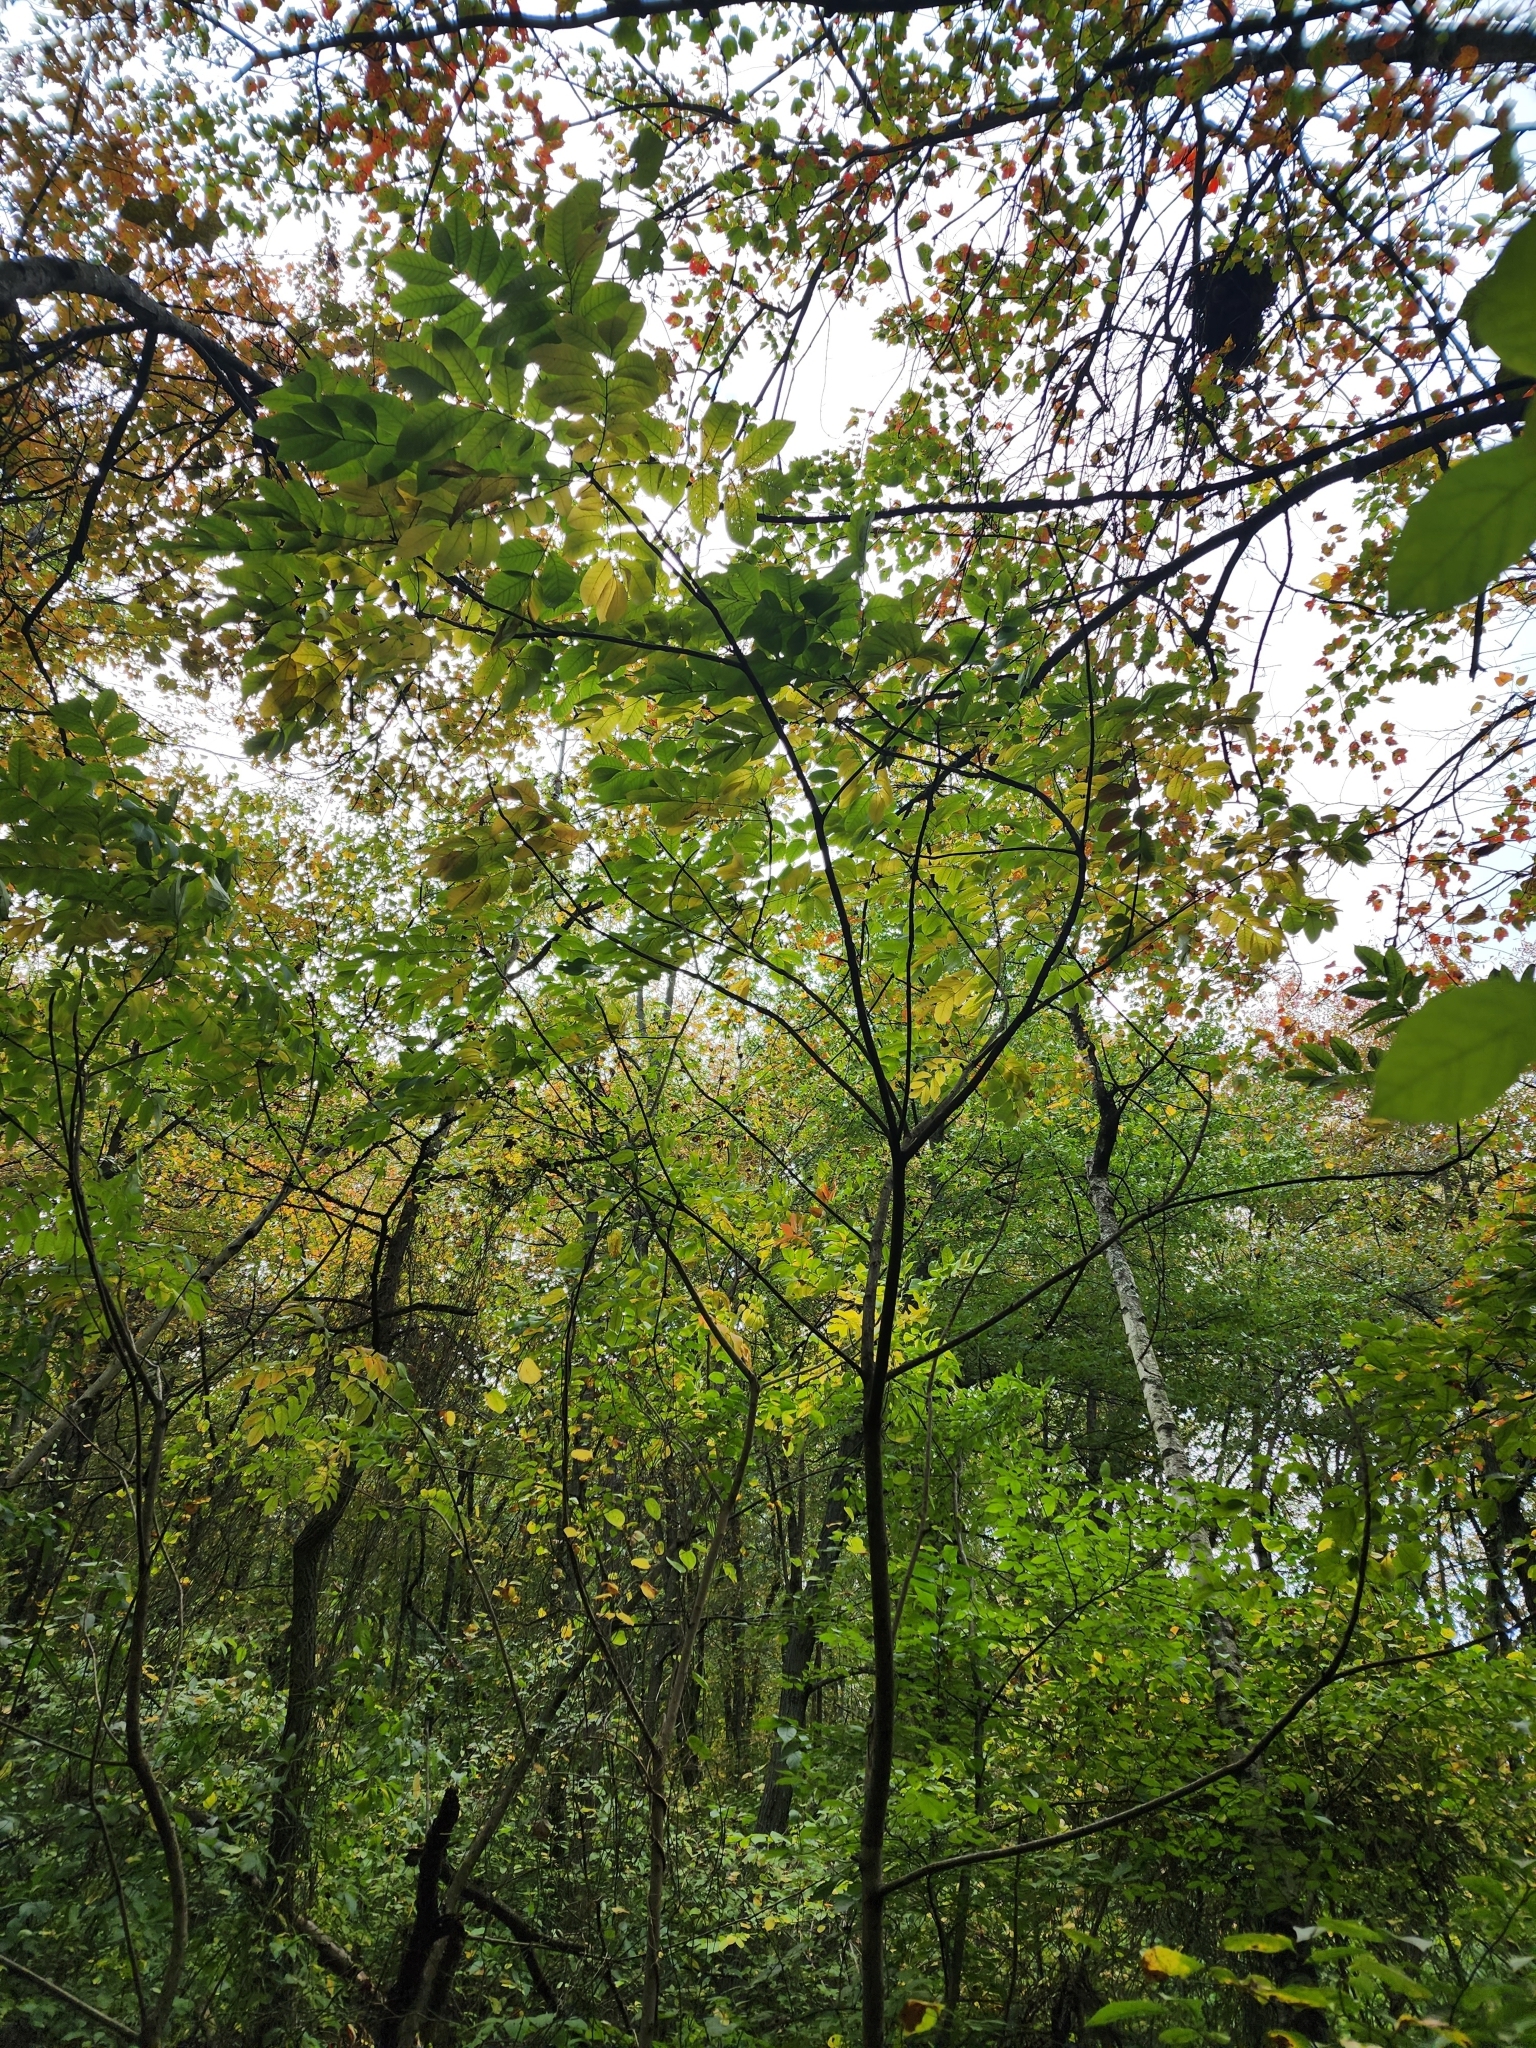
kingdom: Plantae
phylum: Tracheophyta
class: Magnoliopsida
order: Sapindales
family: Anacardiaceae
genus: Toxicodendron
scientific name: Toxicodendron vernix
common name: Poison sumac
